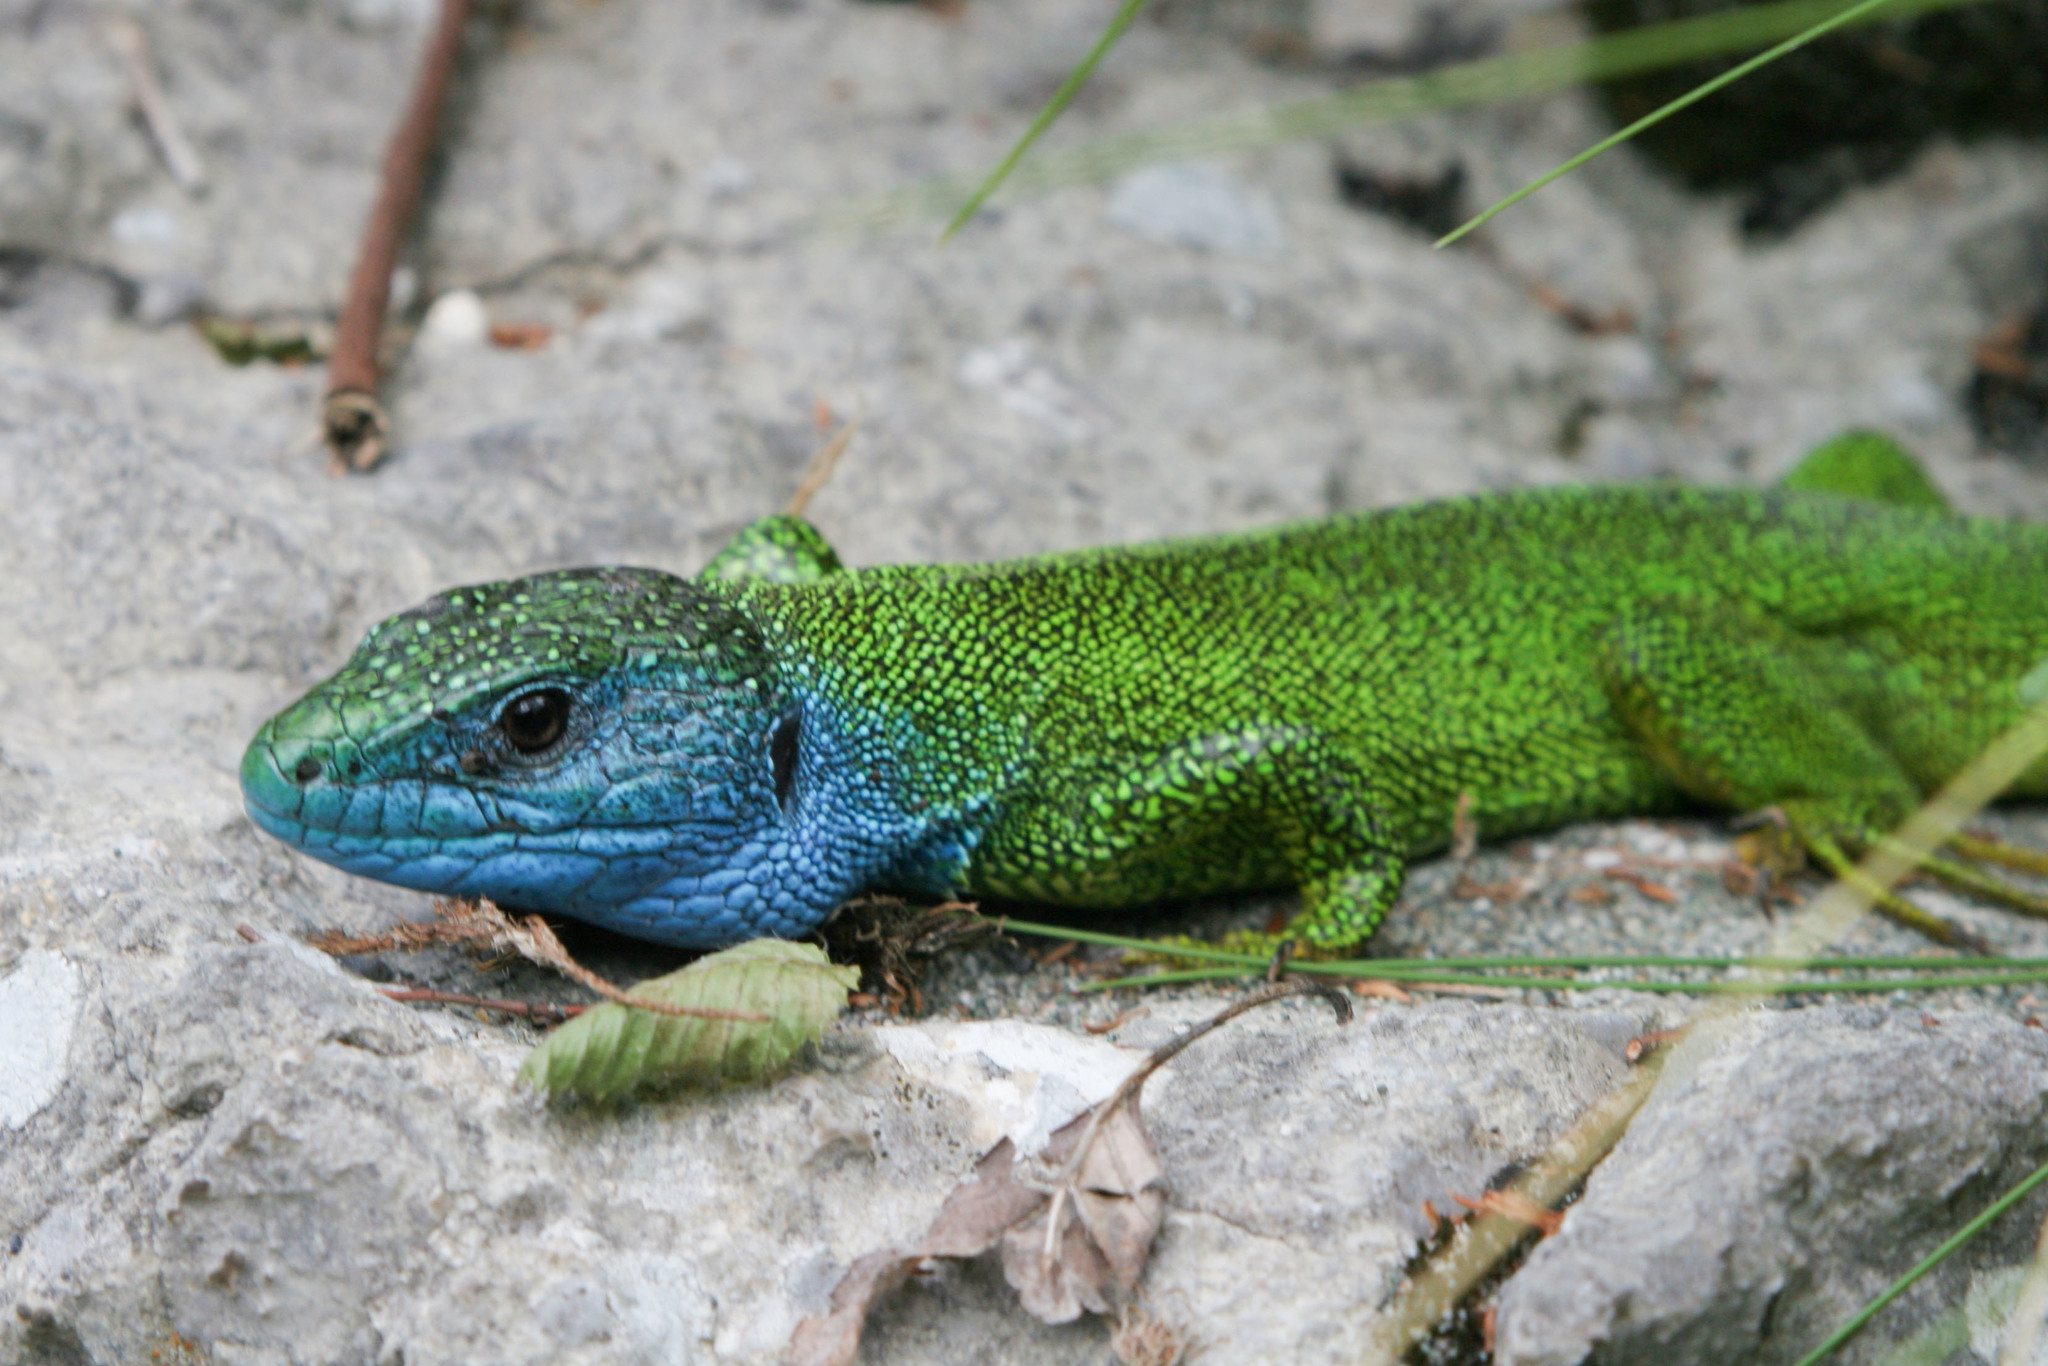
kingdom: Animalia
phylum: Chordata
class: Squamata
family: Lacertidae
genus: Lacerta
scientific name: Lacerta viridis
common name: European green lizard
